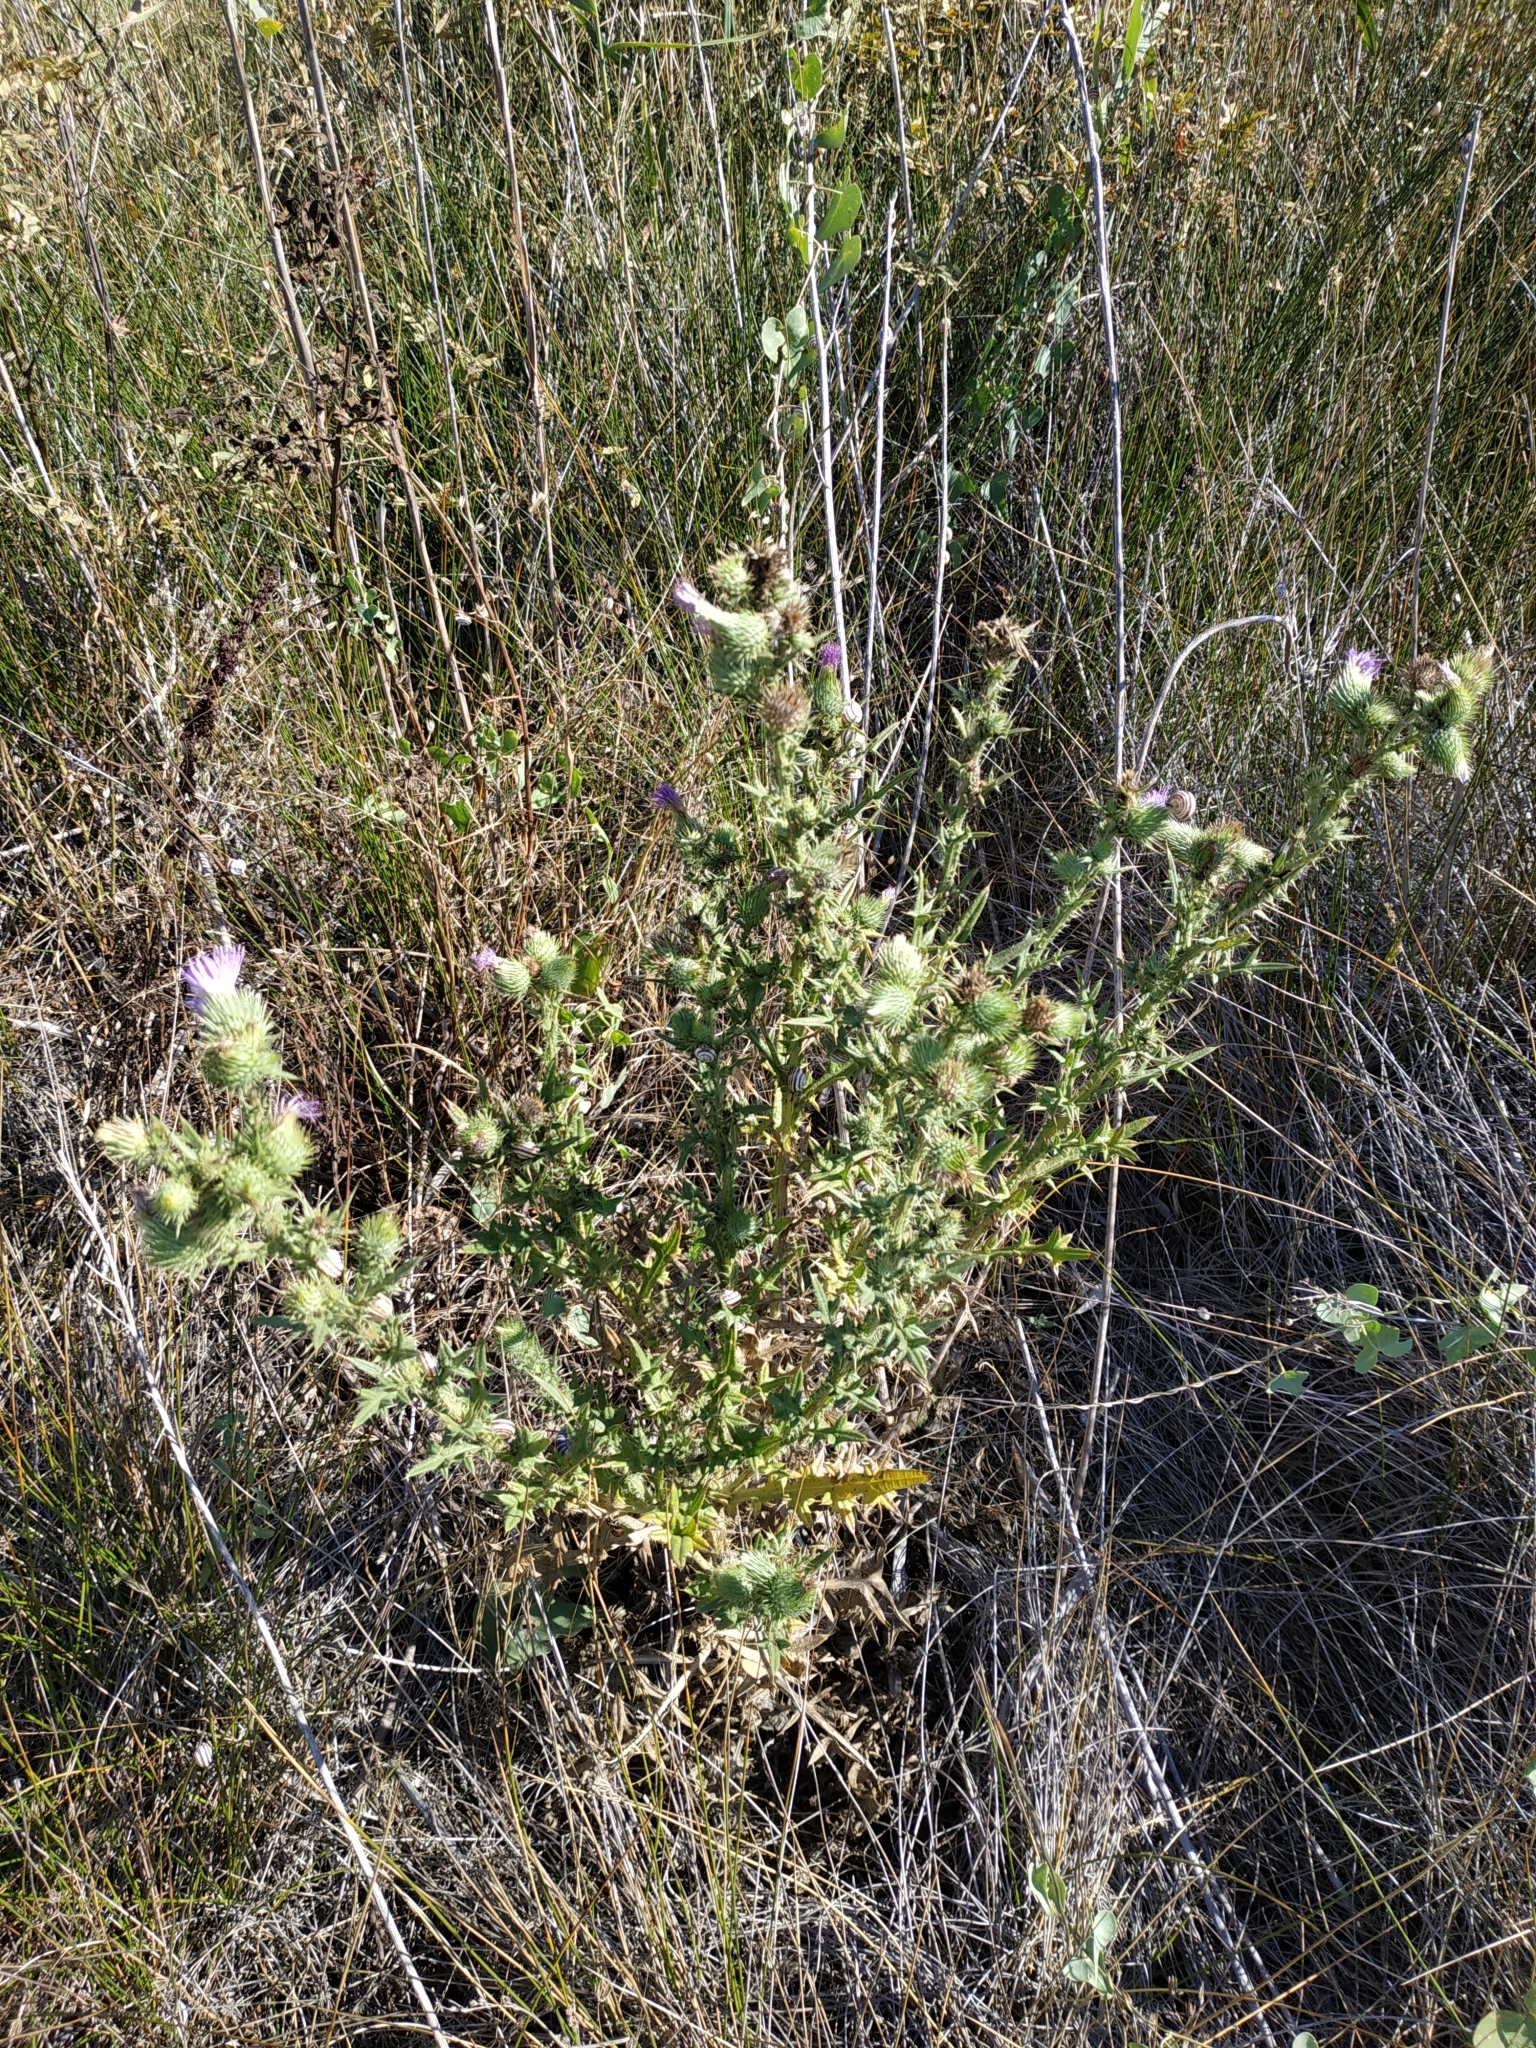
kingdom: Plantae
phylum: Tracheophyta
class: Magnoliopsida
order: Asterales
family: Asteraceae
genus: Cirsium
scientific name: Cirsium vulgare
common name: Bull thistle
